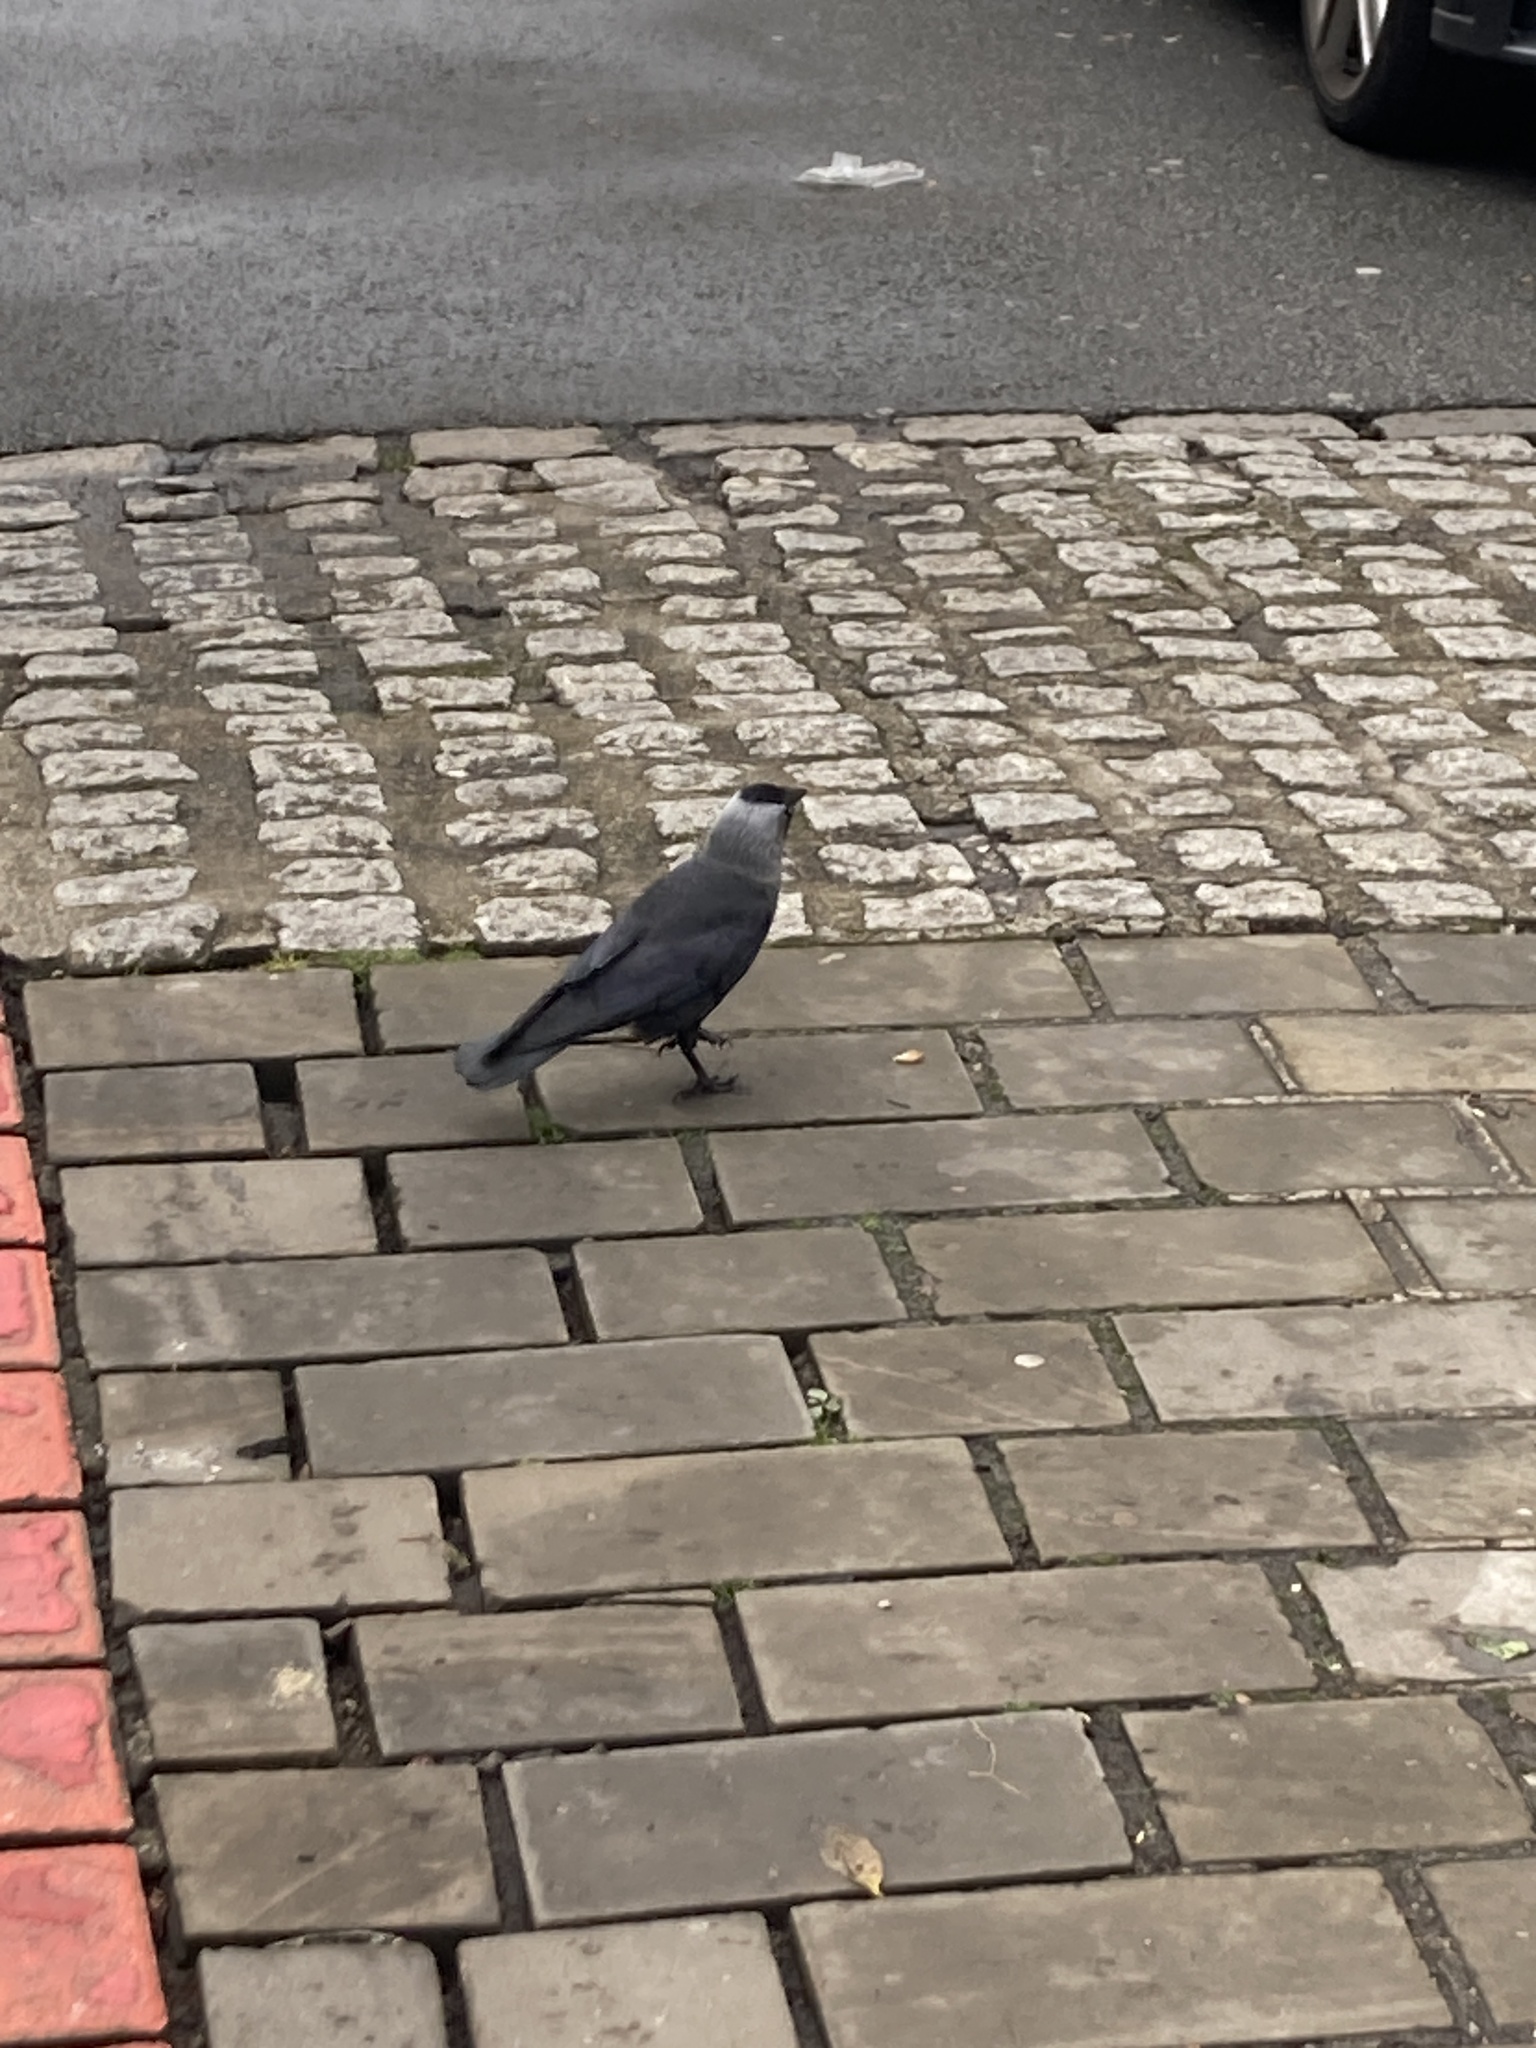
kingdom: Animalia
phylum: Chordata
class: Aves
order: Passeriformes
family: Corvidae
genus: Coloeus
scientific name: Coloeus monedula
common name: Western jackdaw
